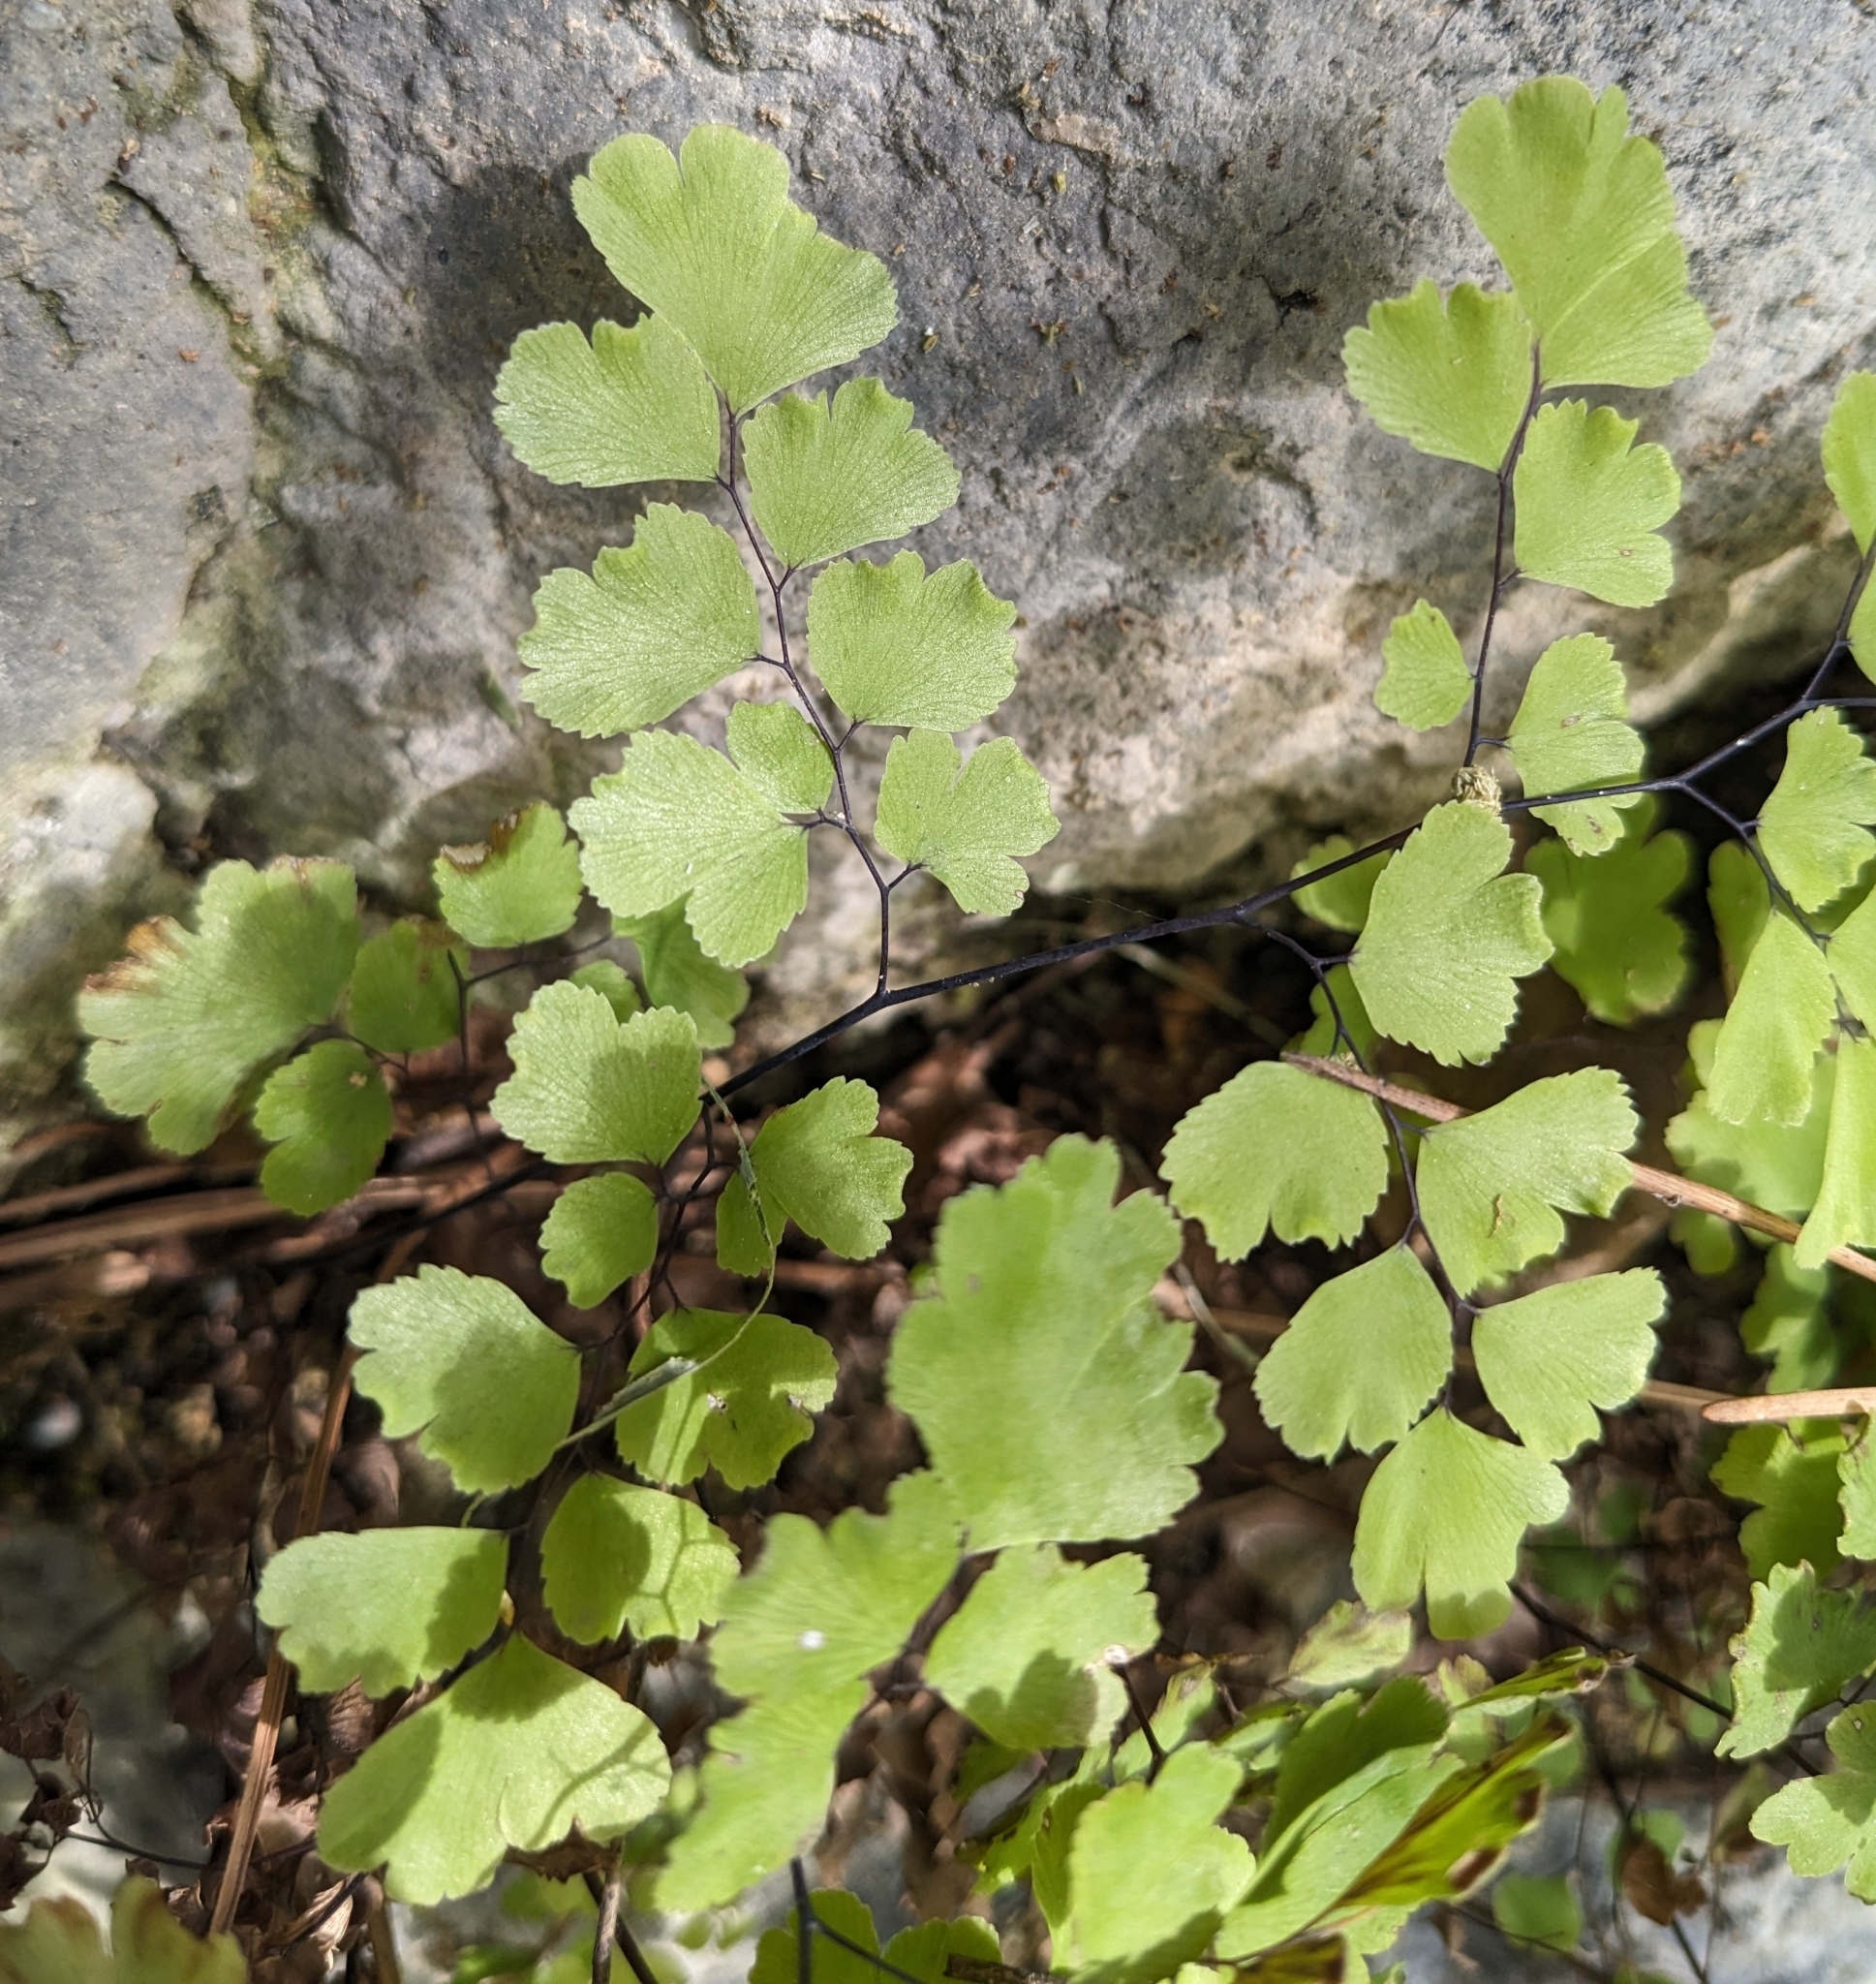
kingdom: Plantae
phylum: Tracheophyta
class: Polypodiopsida
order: Polypodiales
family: Pteridaceae
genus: Adiantum
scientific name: Adiantum capillus-veneris
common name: Maidenhair fern
